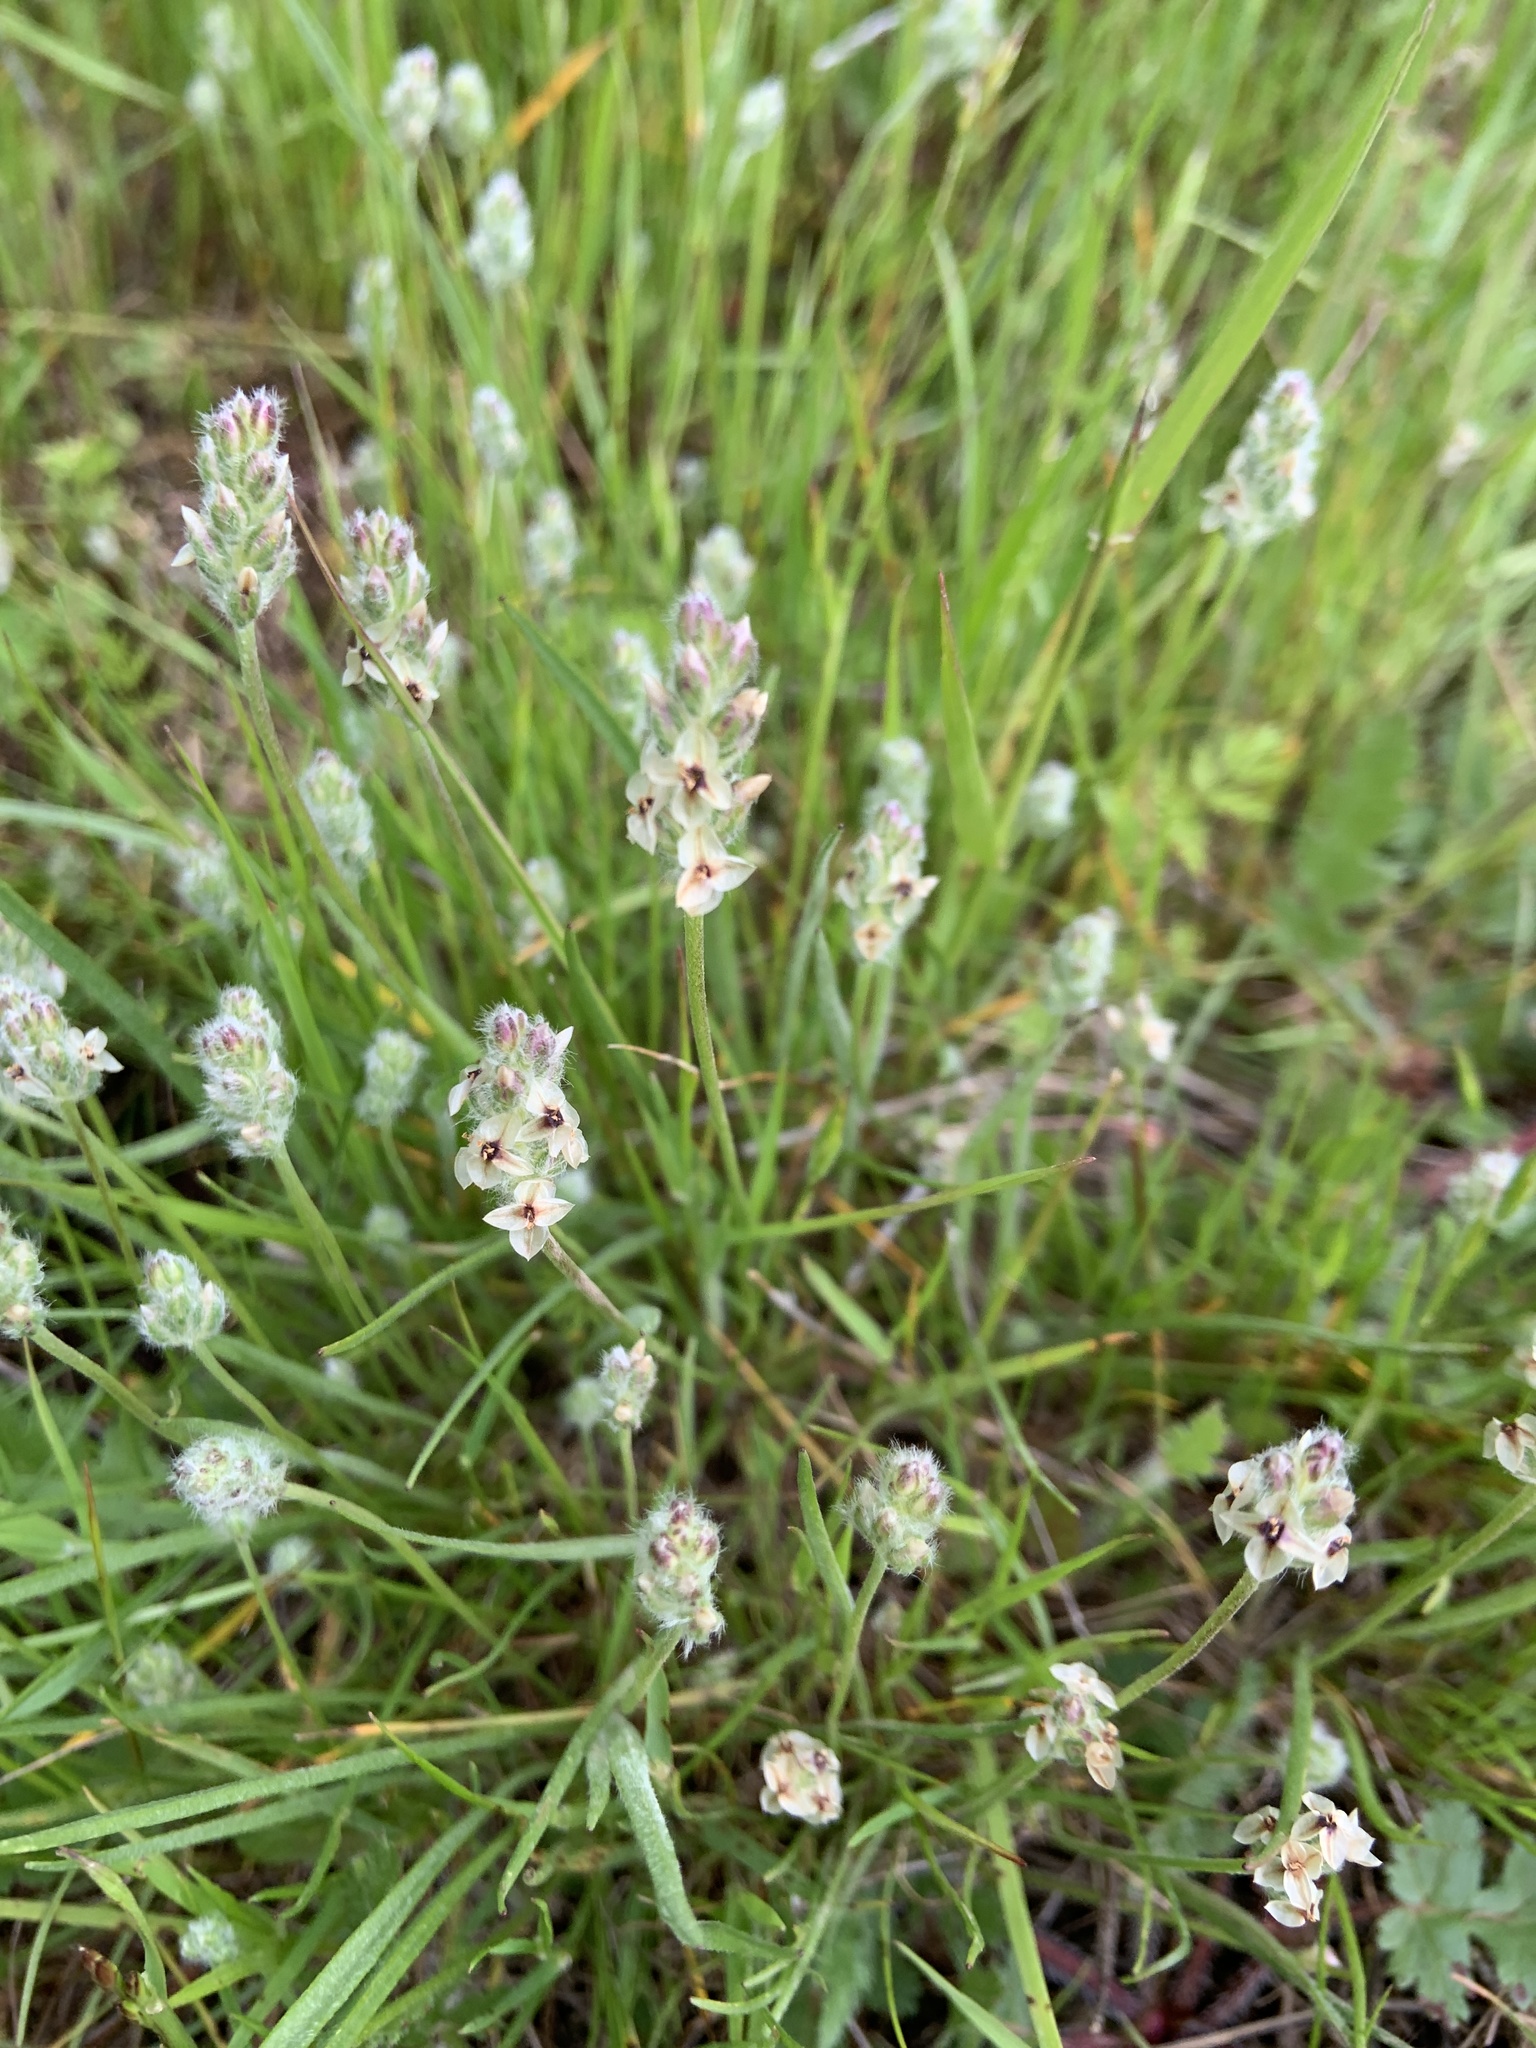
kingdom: Plantae
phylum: Tracheophyta
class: Magnoliopsida
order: Lamiales
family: Plantaginaceae
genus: Plantago
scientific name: Plantago erecta
